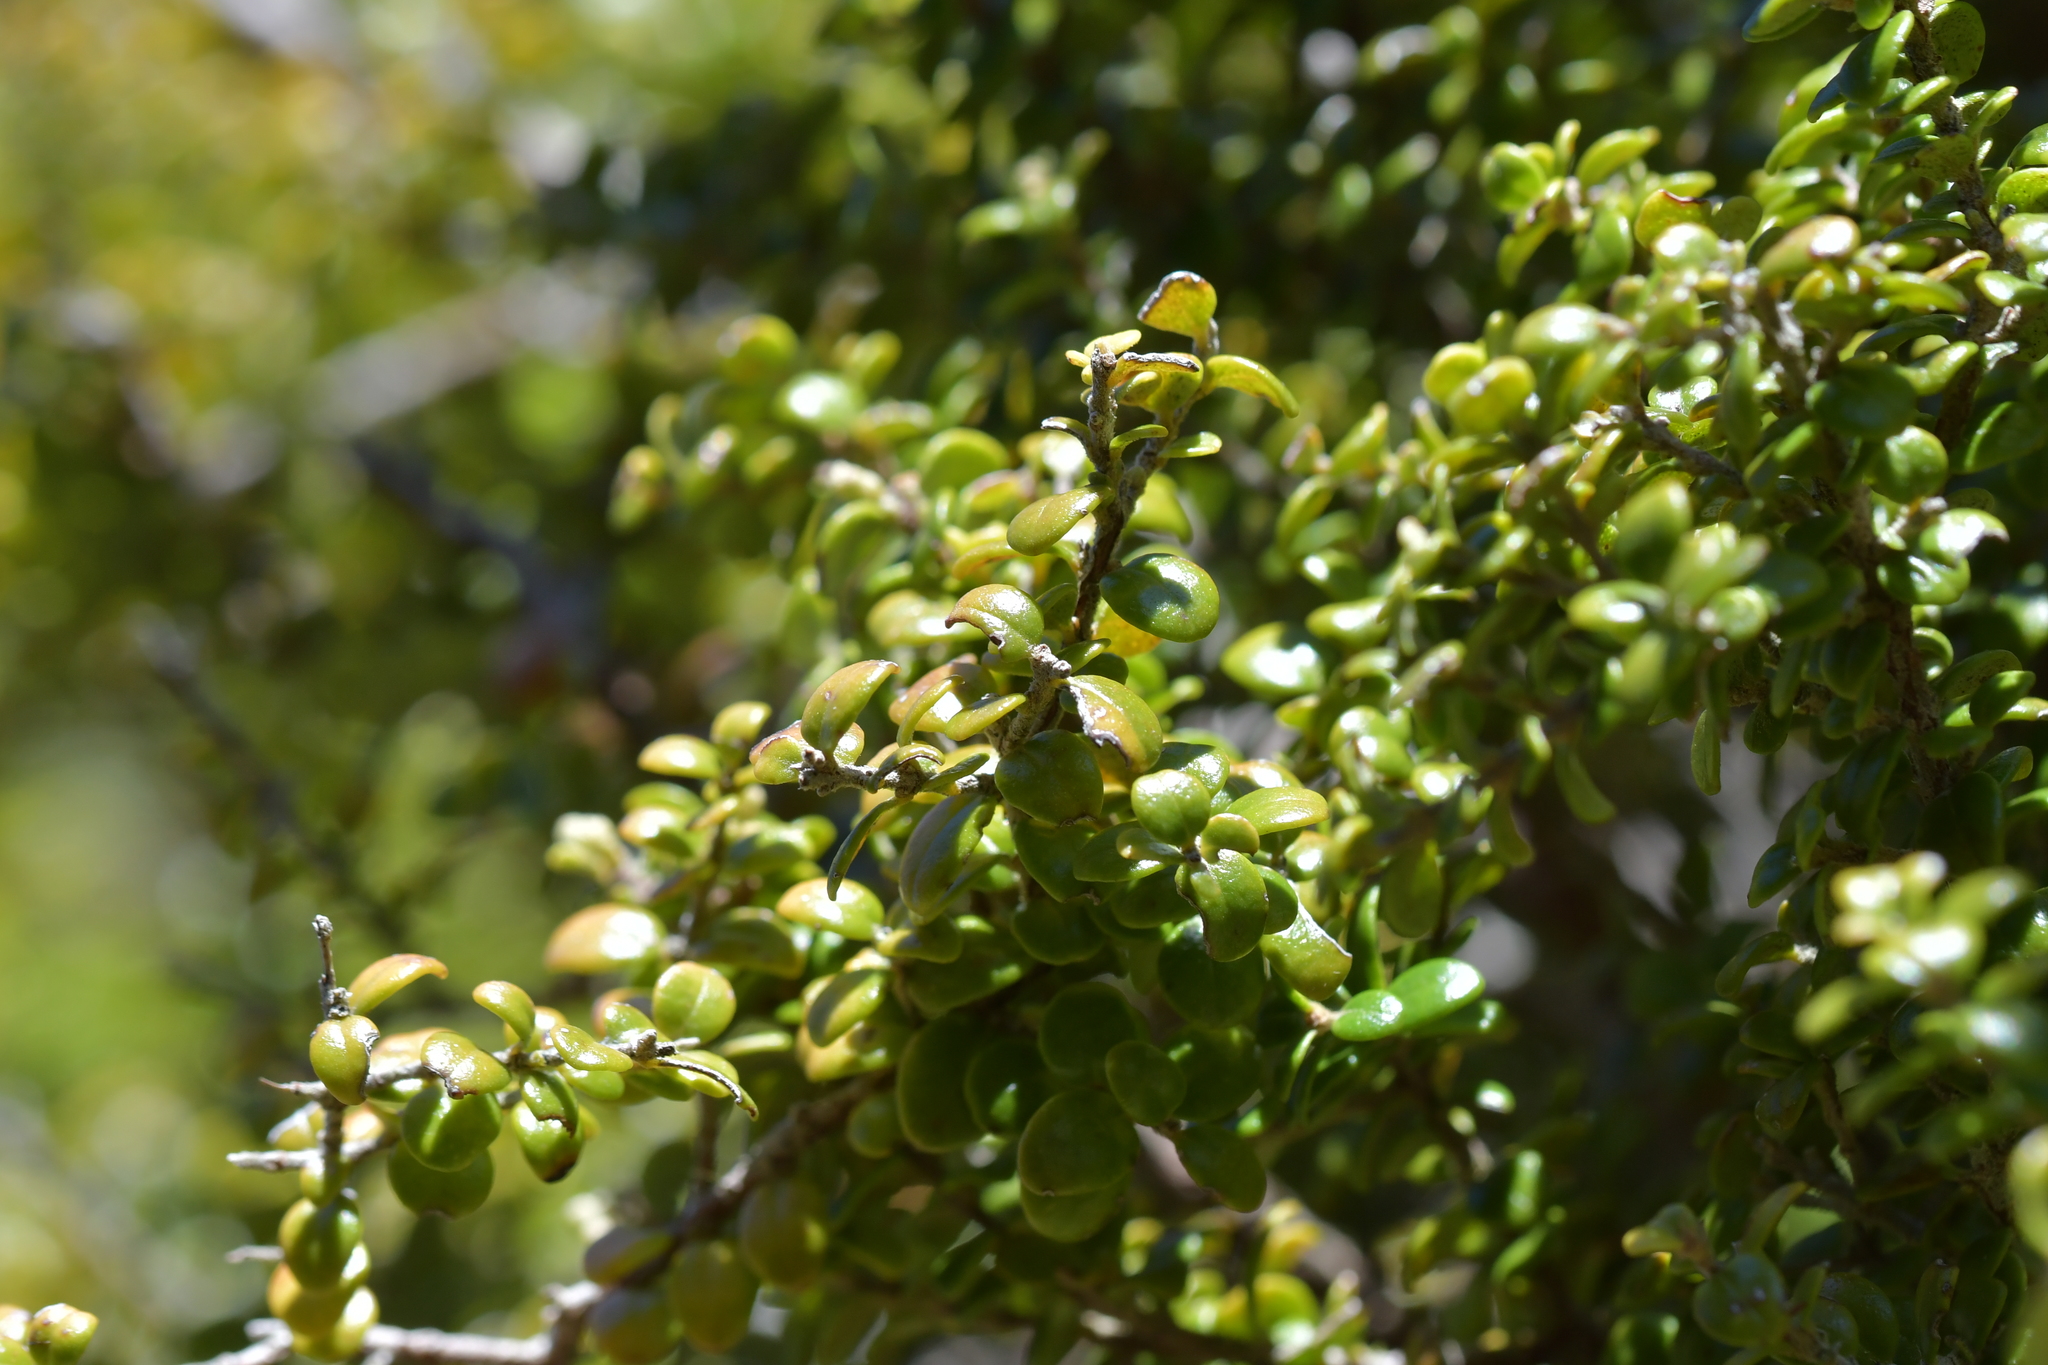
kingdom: Plantae
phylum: Tracheophyta
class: Magnoliopsida
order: Myrtales
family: Myrtaceae
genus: Metrosideros
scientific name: Metrosideros perforata
